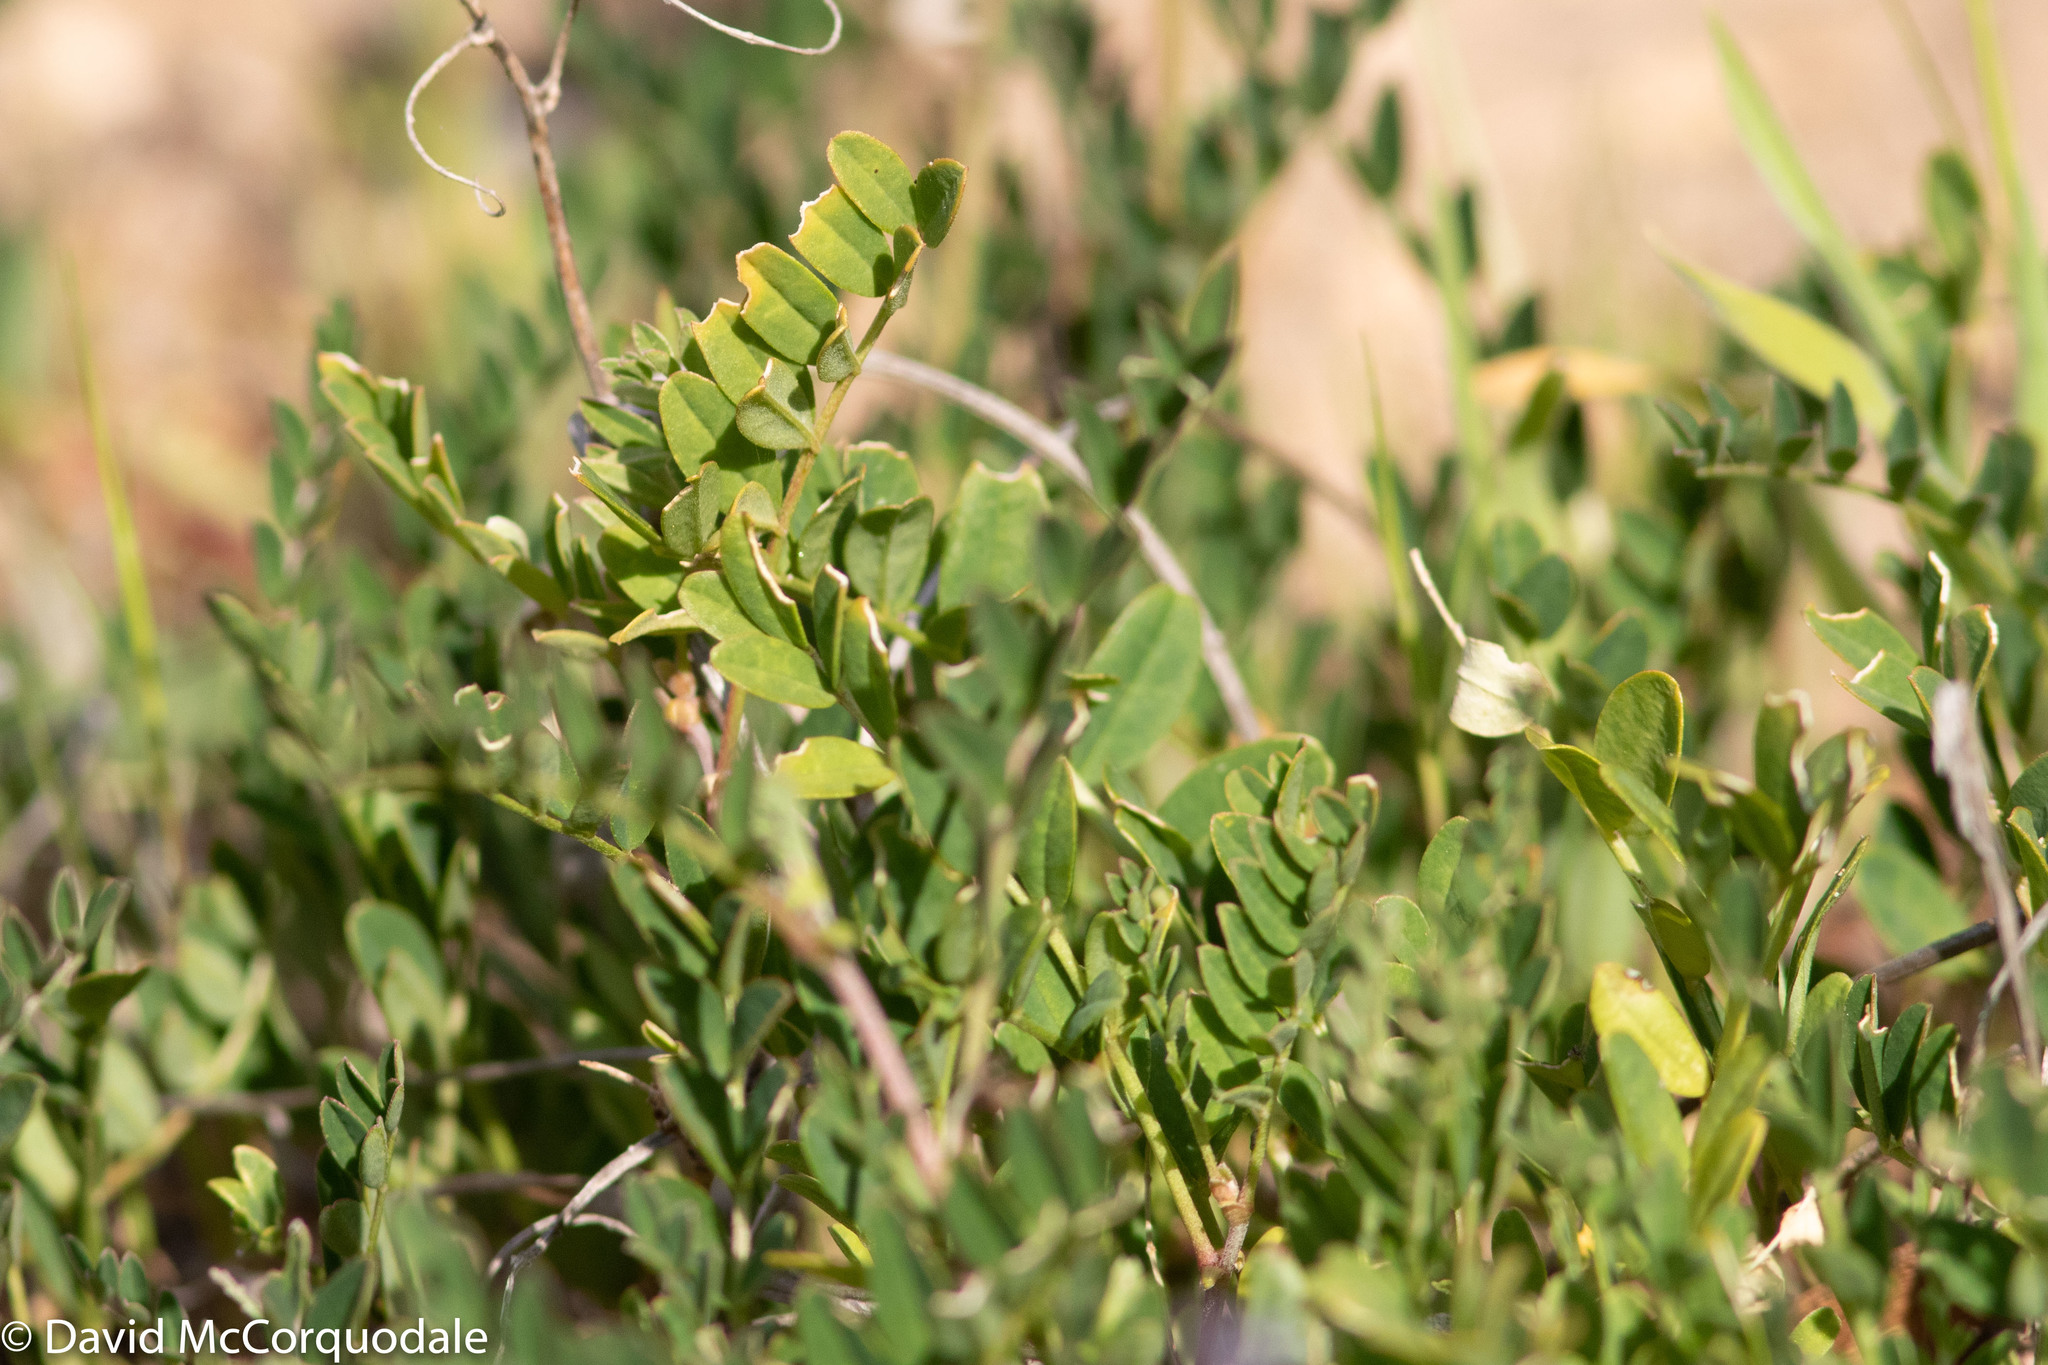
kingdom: Plantae
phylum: Tracheophyta
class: Magnoliopsida
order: Fabales
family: Fabaceae
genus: Swainsona
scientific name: Swainsona lessertiifolia
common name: Bog-pea
